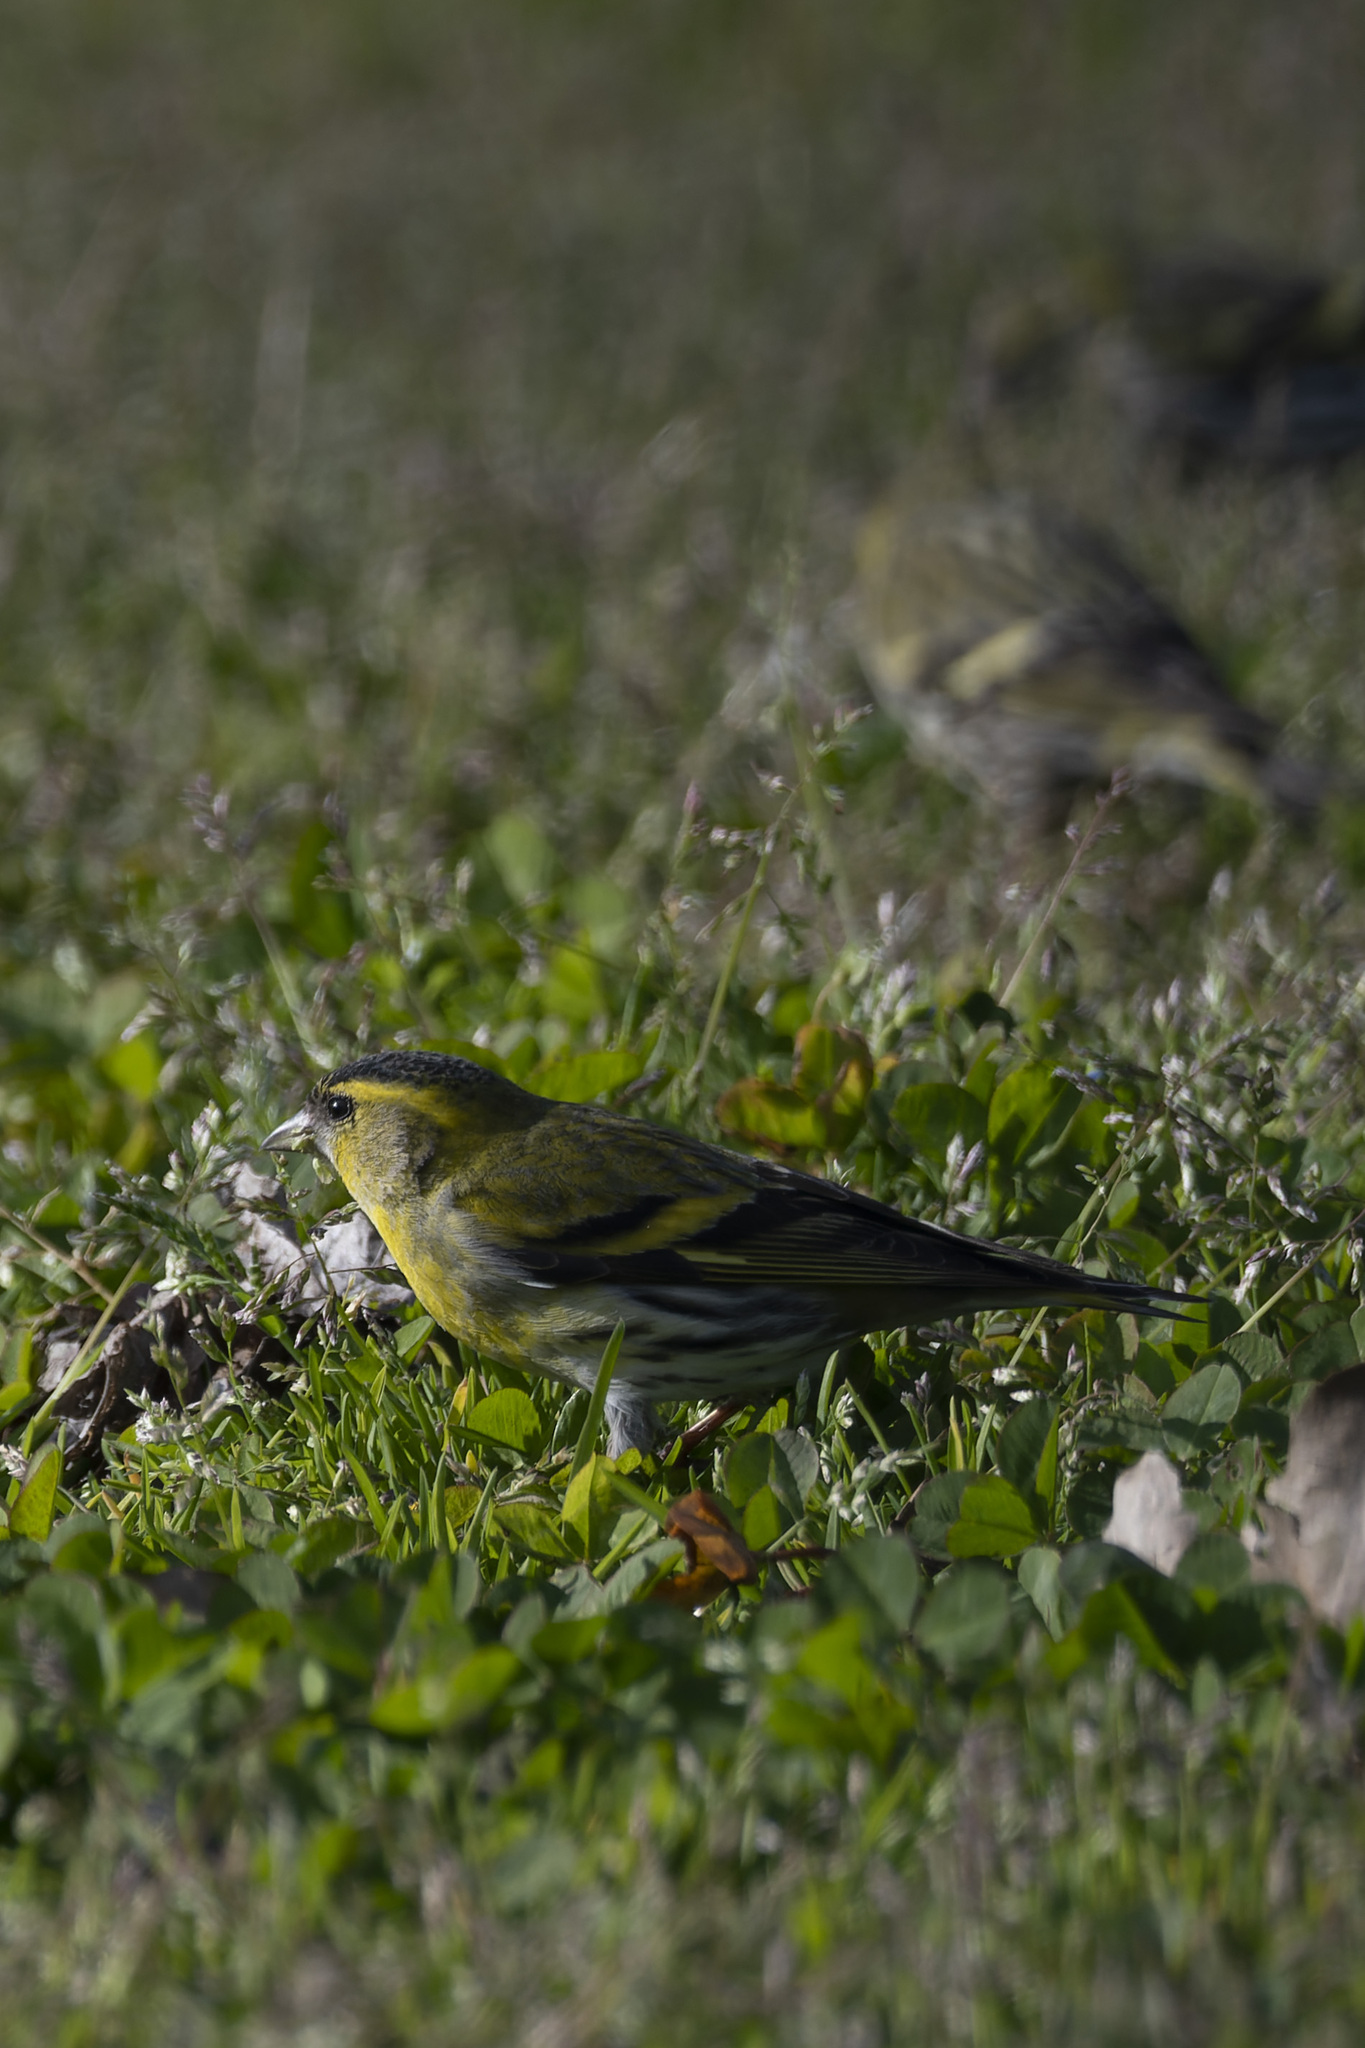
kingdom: Animalia
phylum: Chordata
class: Aves
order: Passeriformes
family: Fringillidae
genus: Spinus
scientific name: Spinus spinus
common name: Eurasian siskin
